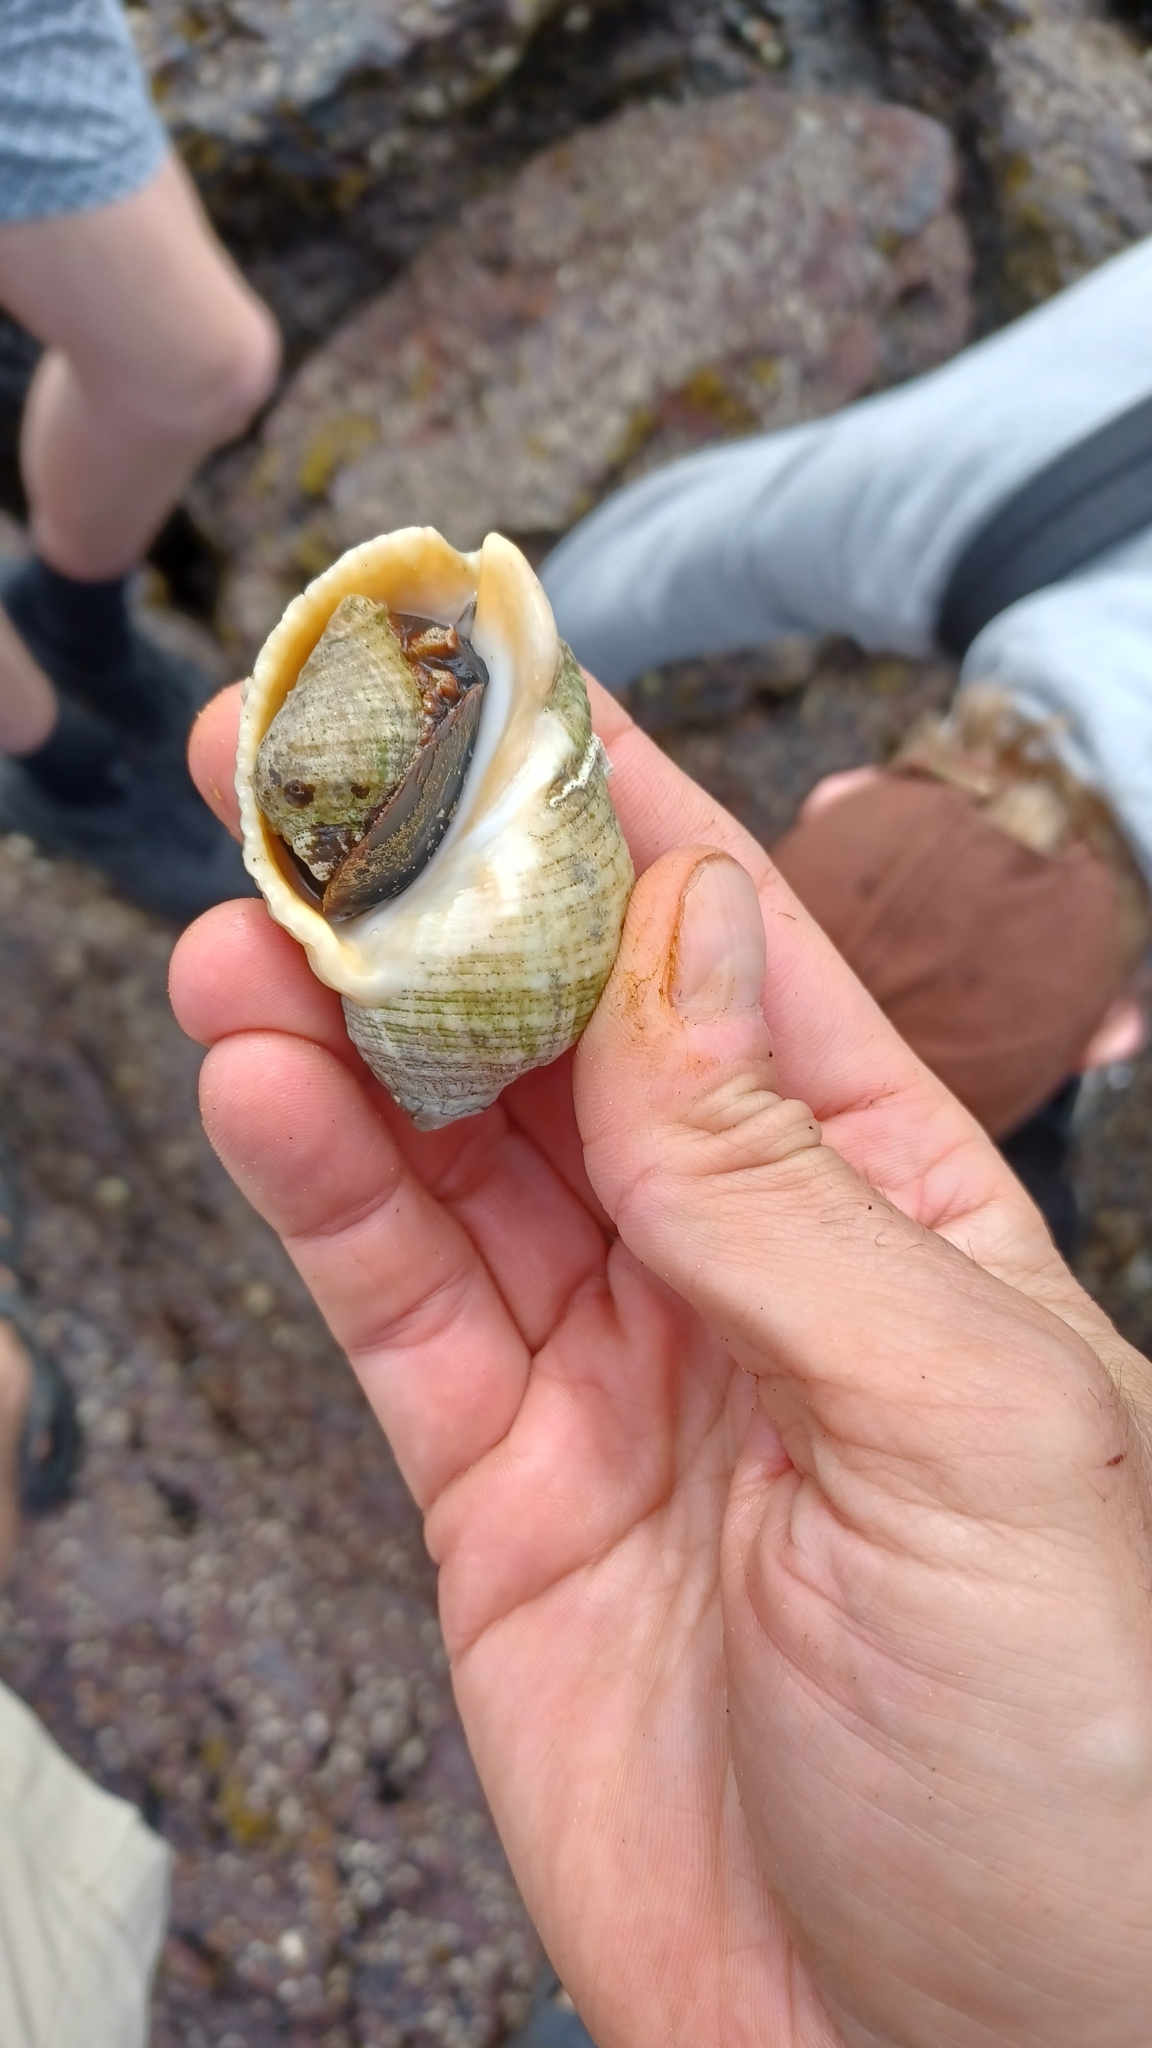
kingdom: Animalia
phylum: Mollusca
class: Gastropoda
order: Neogastropoda
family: Muricidae
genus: Dicathais
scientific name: Dicathais orbita
